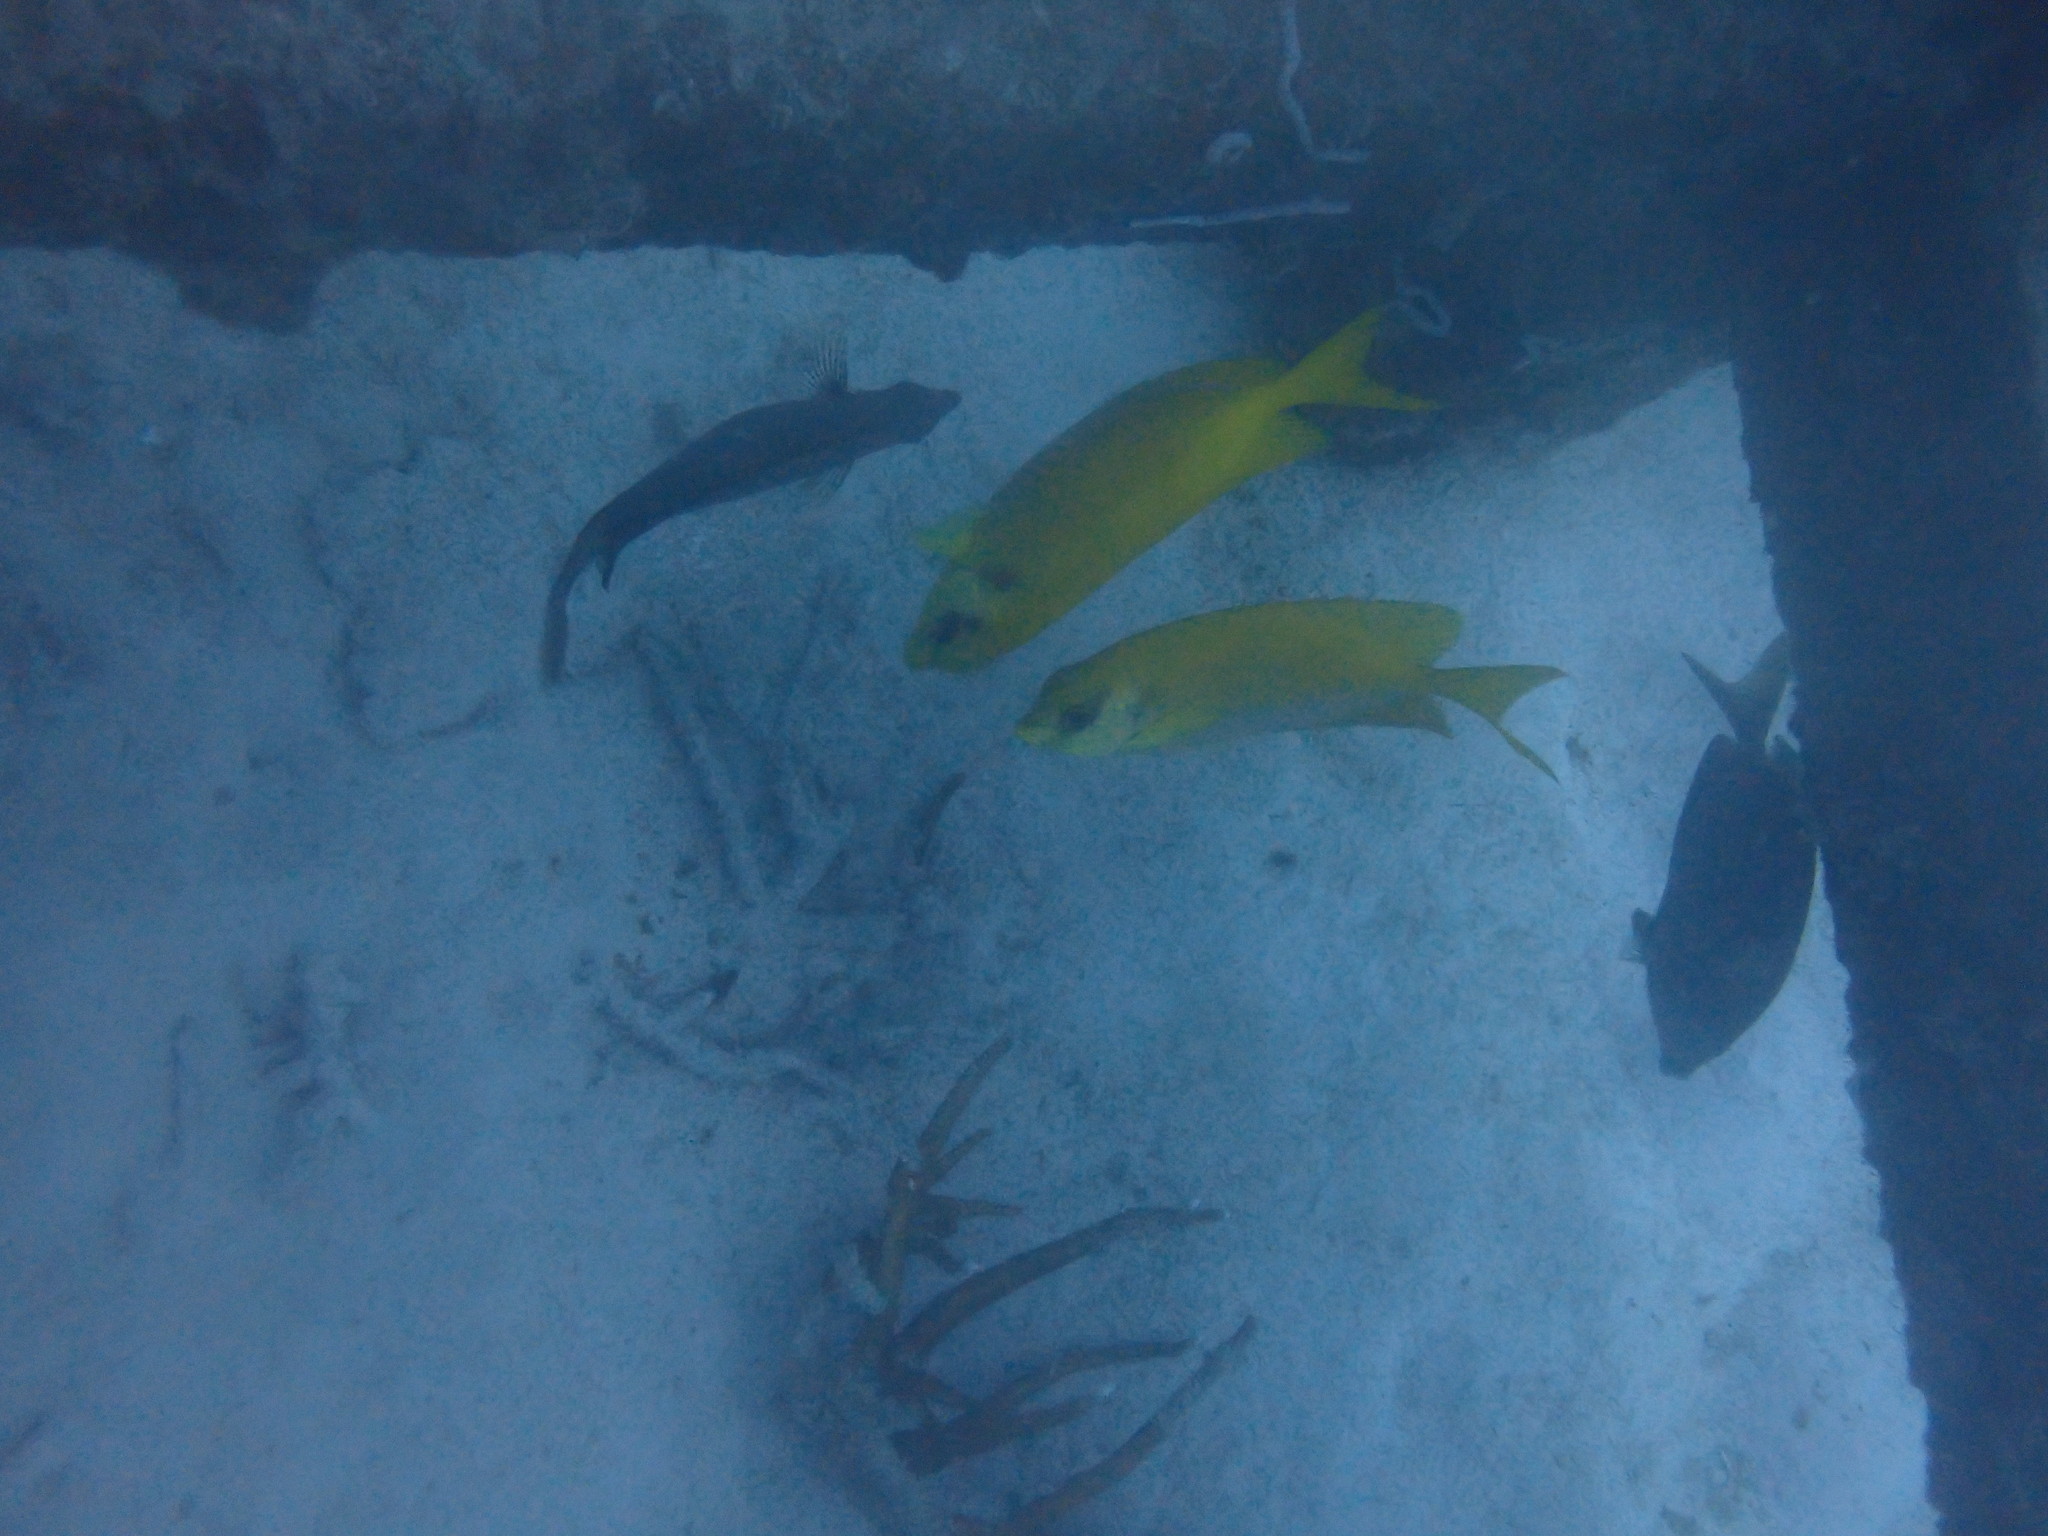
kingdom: Animalia
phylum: Chordata
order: Perciformes
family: Siganidae
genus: Siganus
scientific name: Siganus corallinus
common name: Coral rabbitfish
